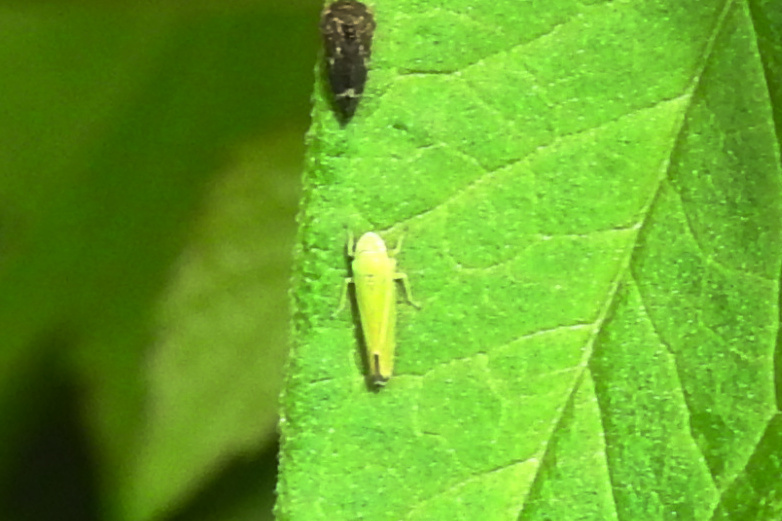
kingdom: Animalia
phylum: Arthropoda
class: Insecta
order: Hemiptera
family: Cicadellidae
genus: Graphocephala
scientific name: Graphocephala versuta
